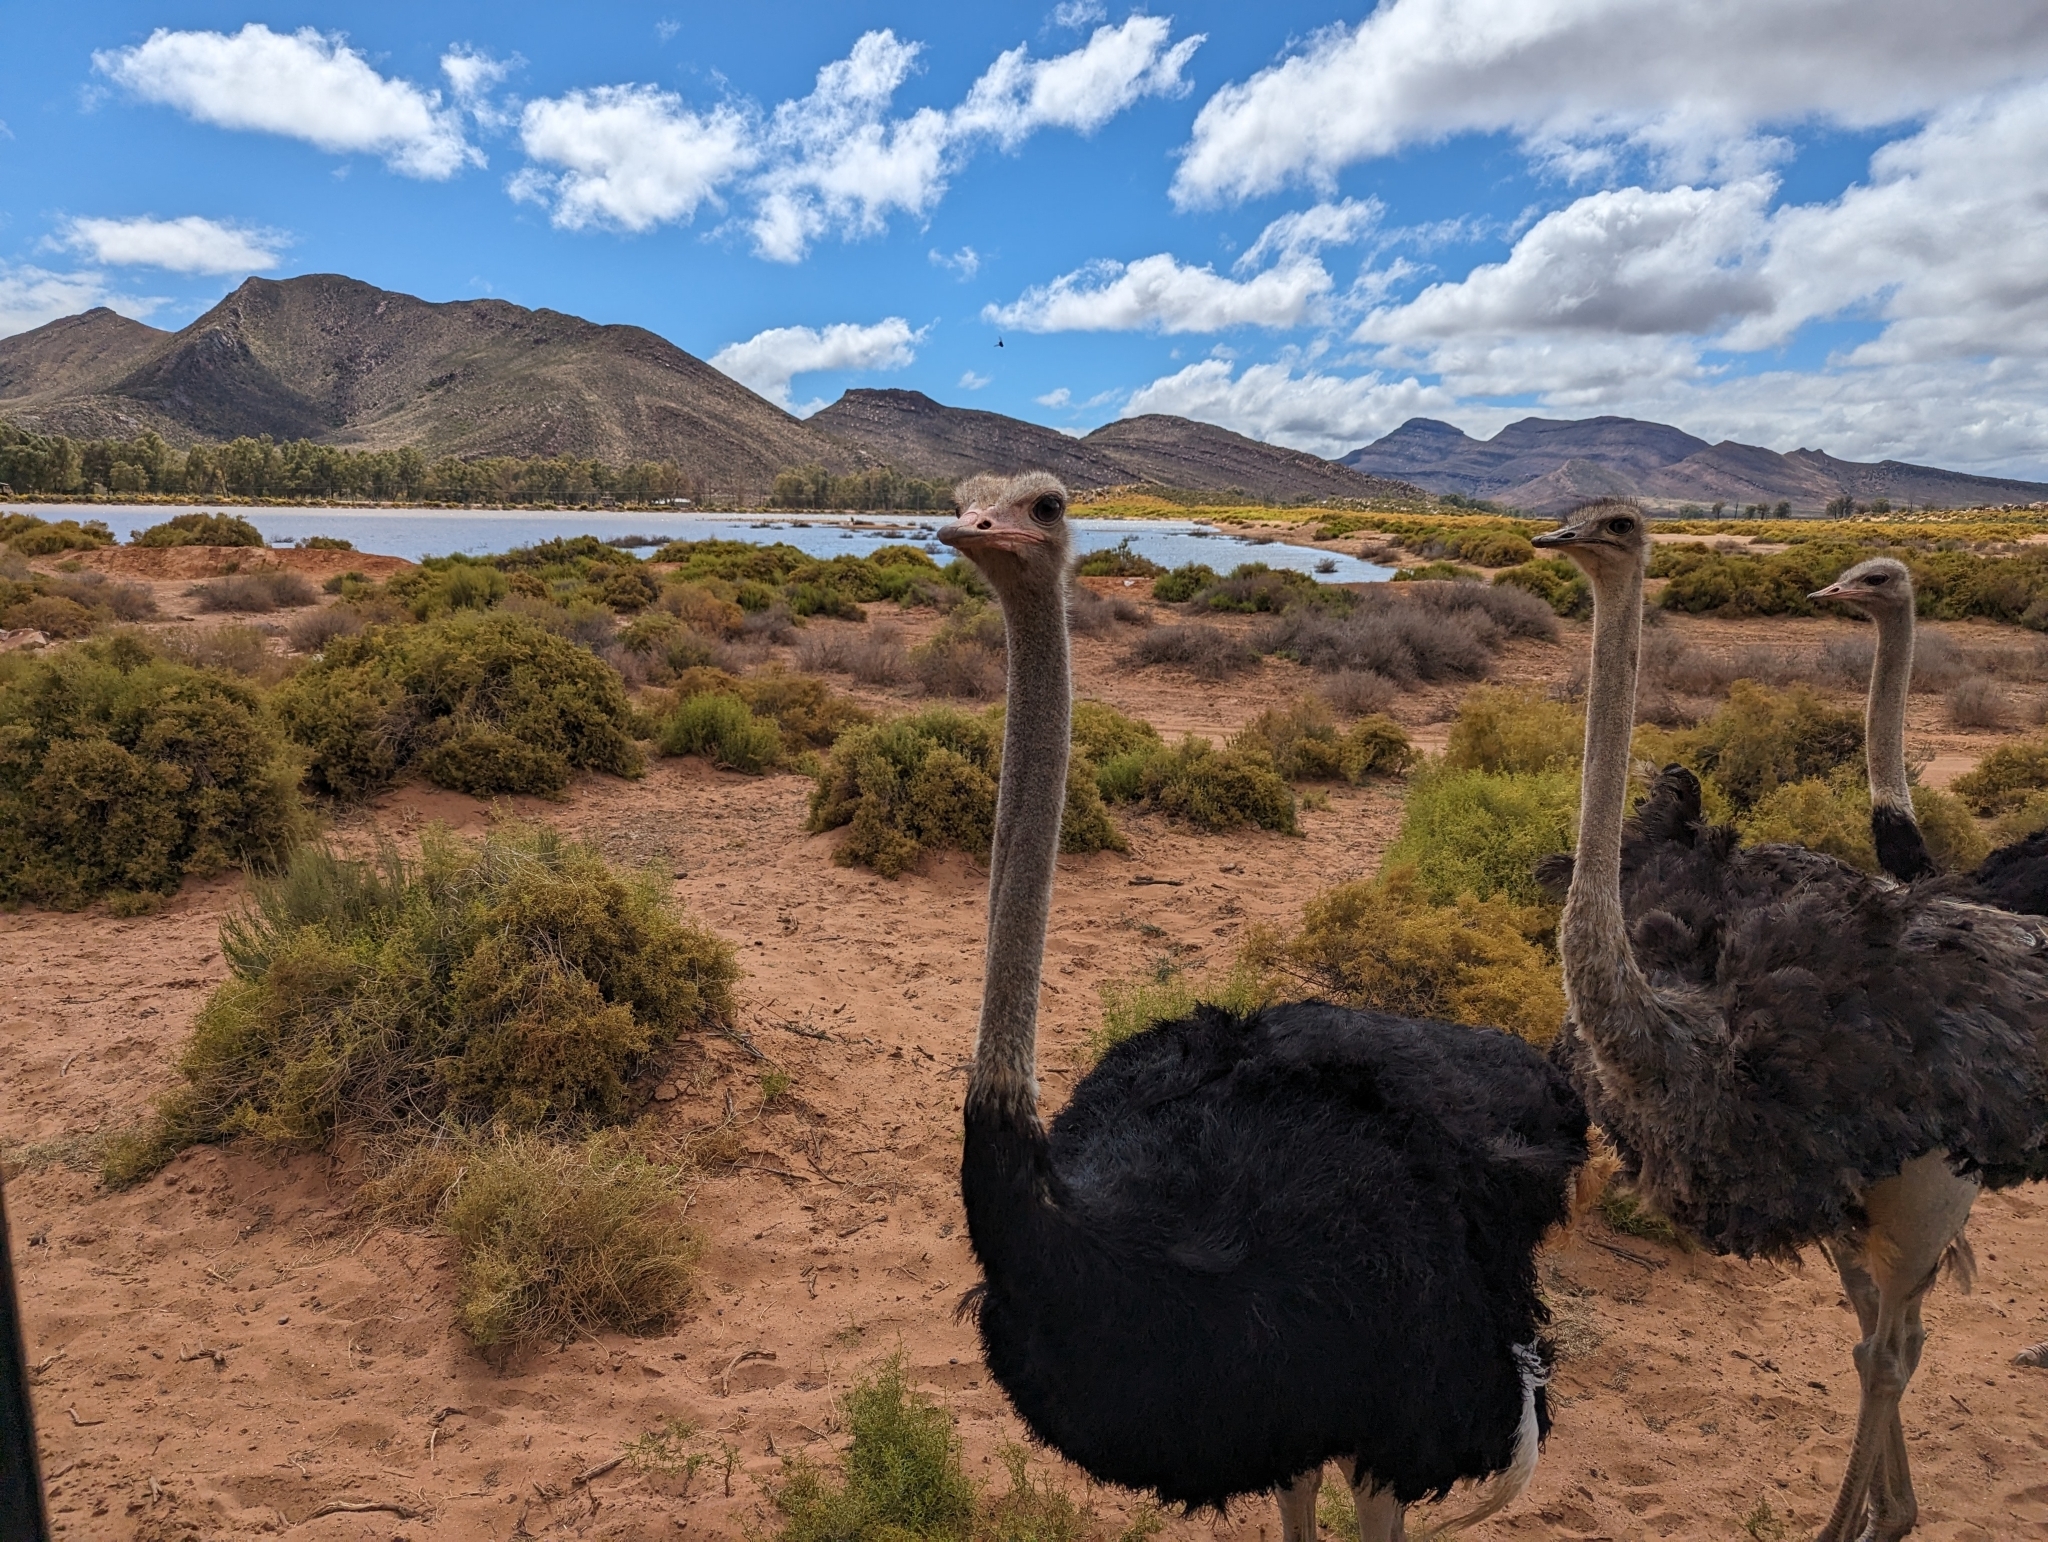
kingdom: Animalia
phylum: Chordata
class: Aves
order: Struthioniformes
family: Struthionidae
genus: Struthio
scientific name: Struthio camelus
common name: Common ostrich
